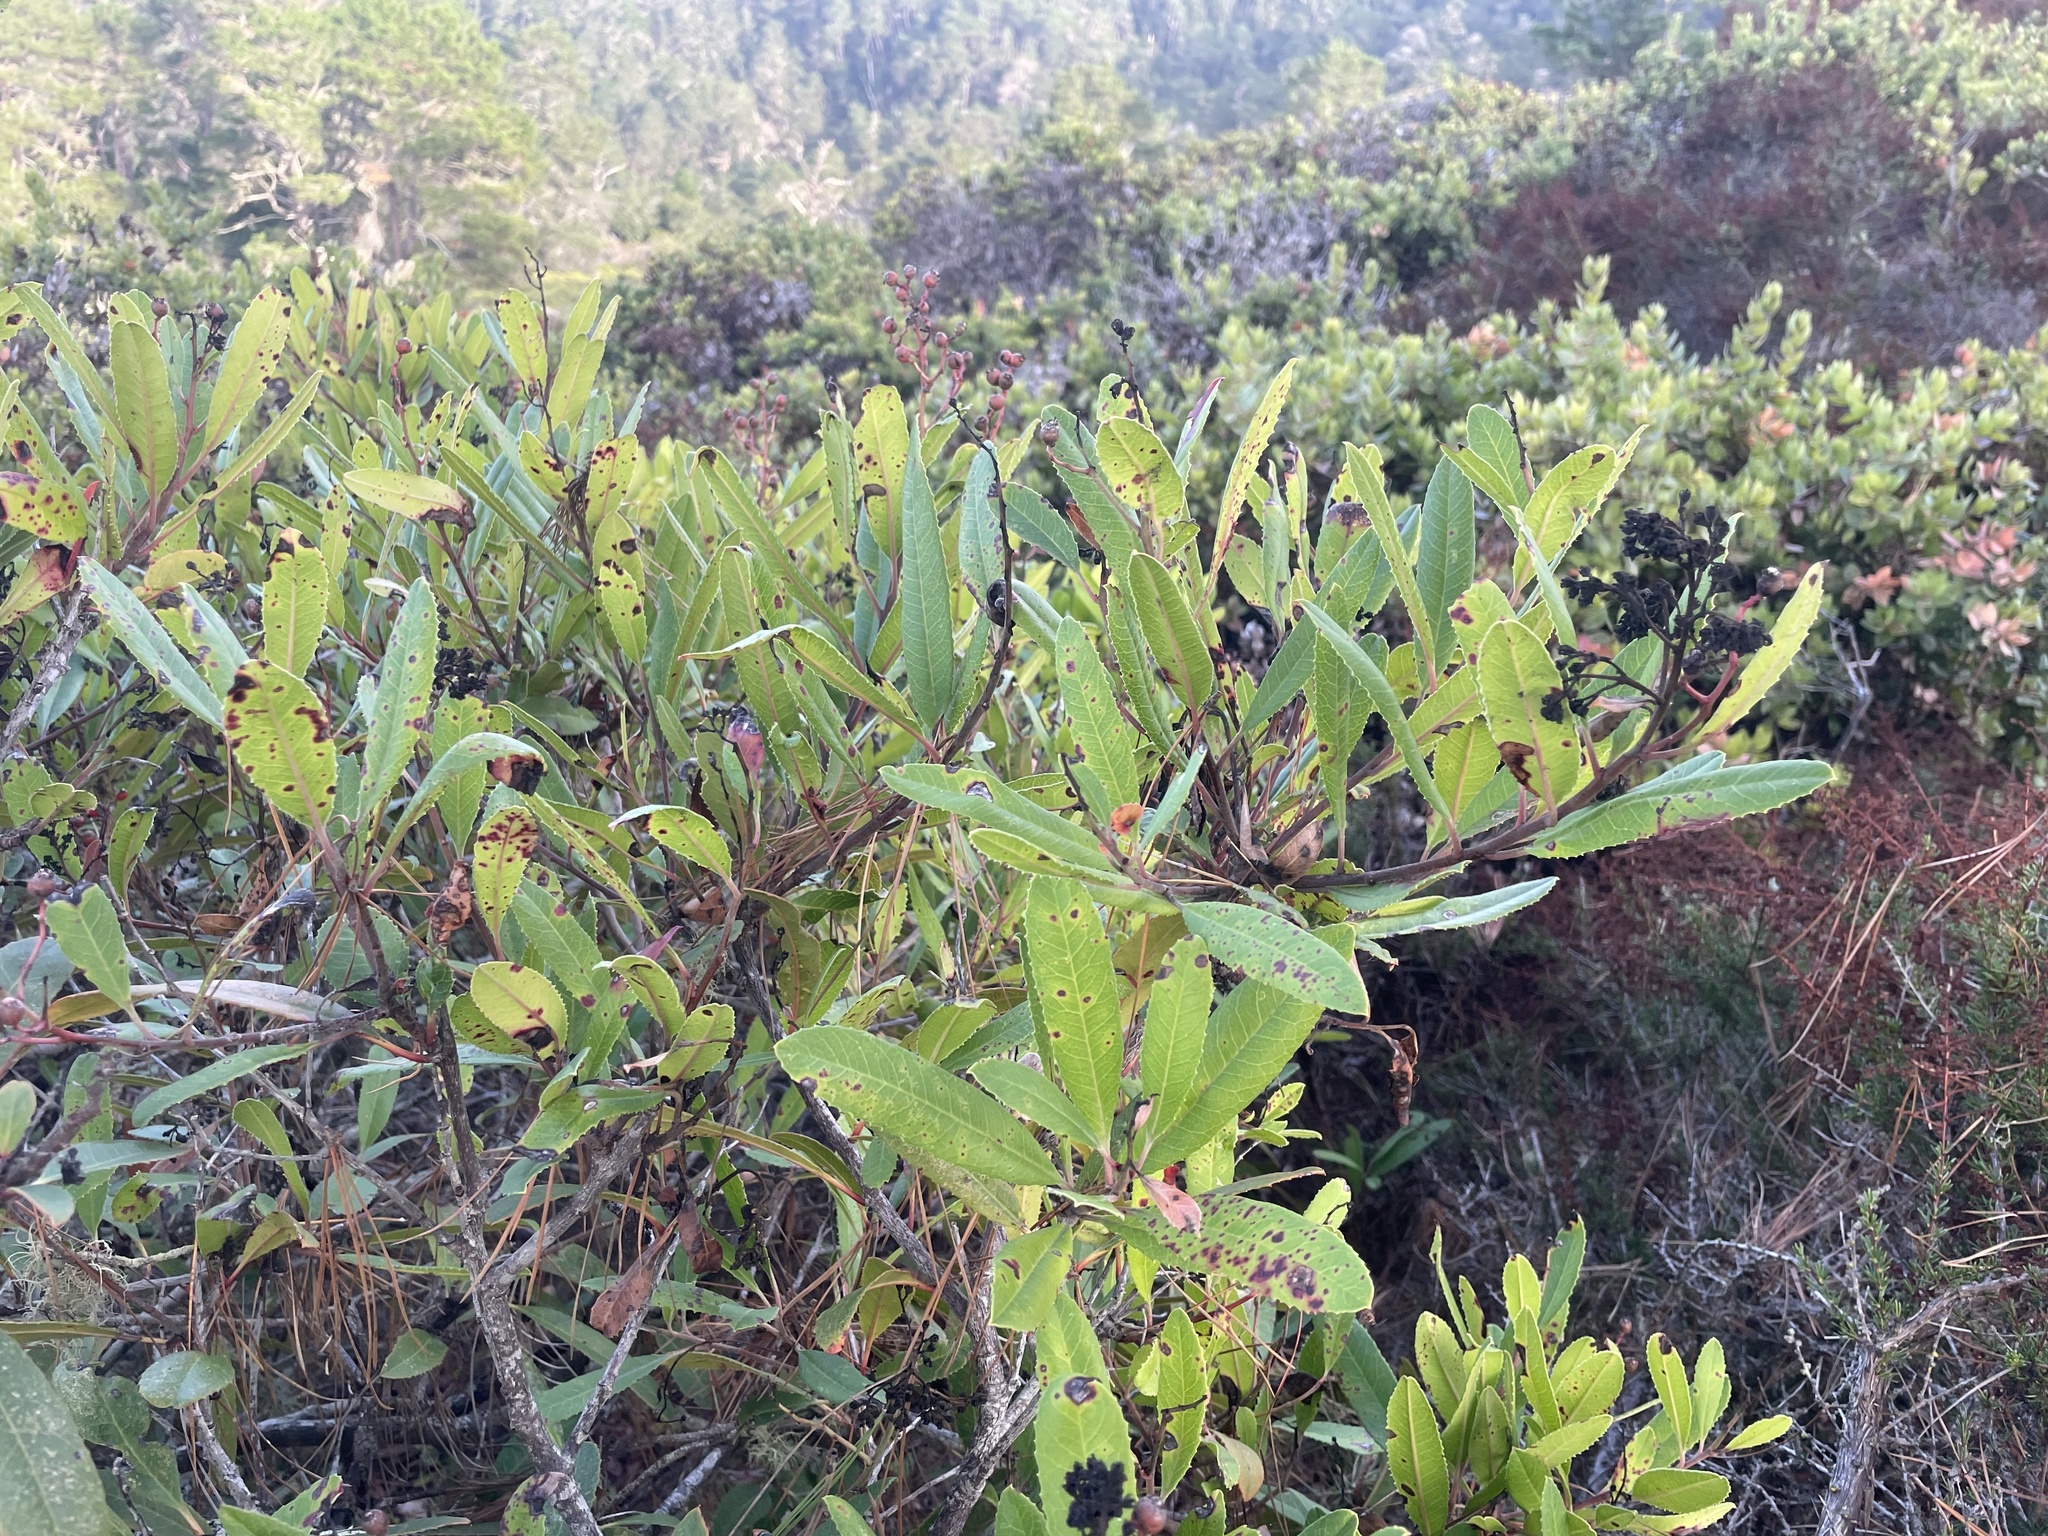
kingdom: Plantae
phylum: Tracheophyta
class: Magnoliopsida
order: Rosales
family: Rosaceae
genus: Heteromeles
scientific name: Heteromeles arbutifolia
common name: California-holly
